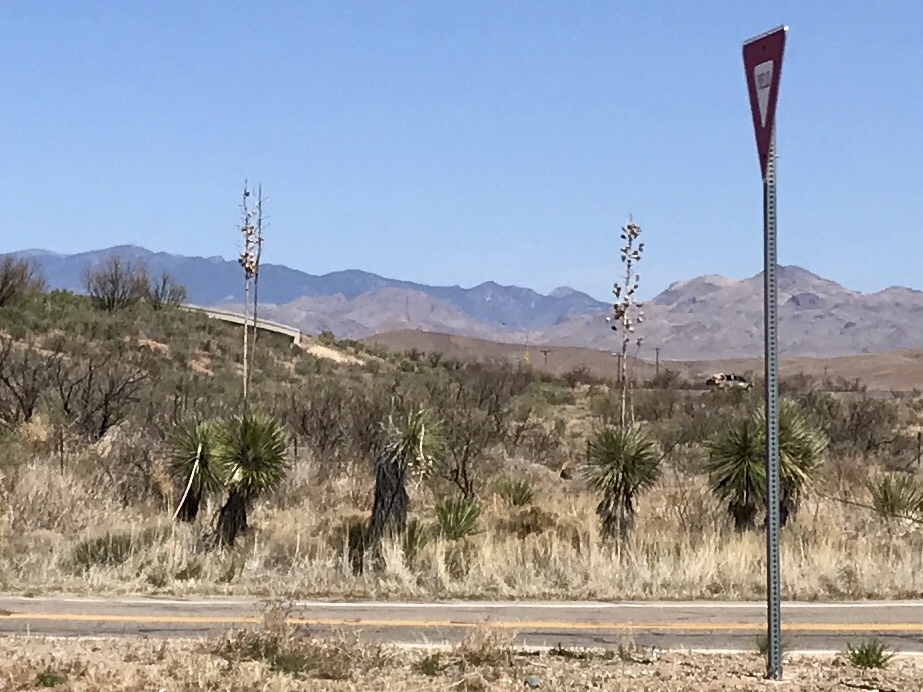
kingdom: Plantae
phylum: Tracheophyta
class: Liliopsida
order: Asparagales
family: Asparagaceae
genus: Yucca
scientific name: Yucca elata
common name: Palmella
